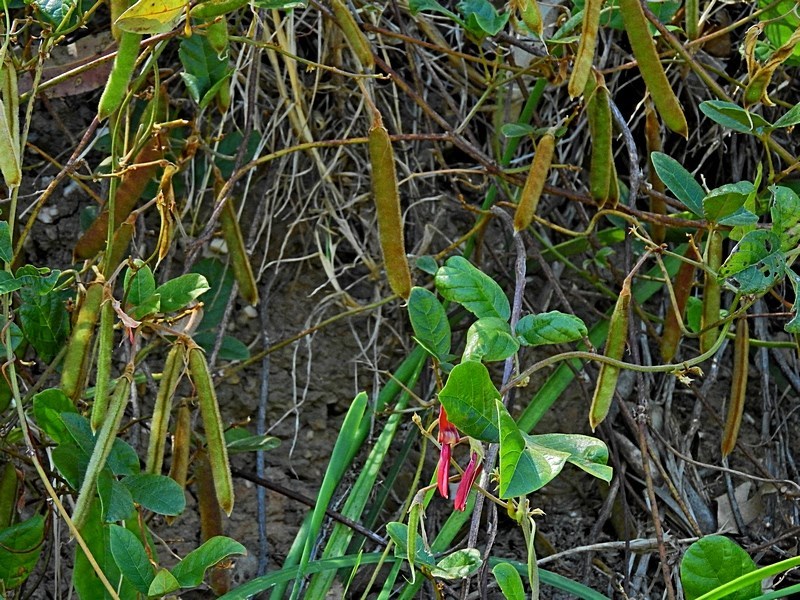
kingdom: Plantae
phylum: Tracheophyta
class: Magnoliopsida
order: Fabales
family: Fabaceae
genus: Kennedia
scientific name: Kennedia rubicunda
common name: Red kennedy-pea
